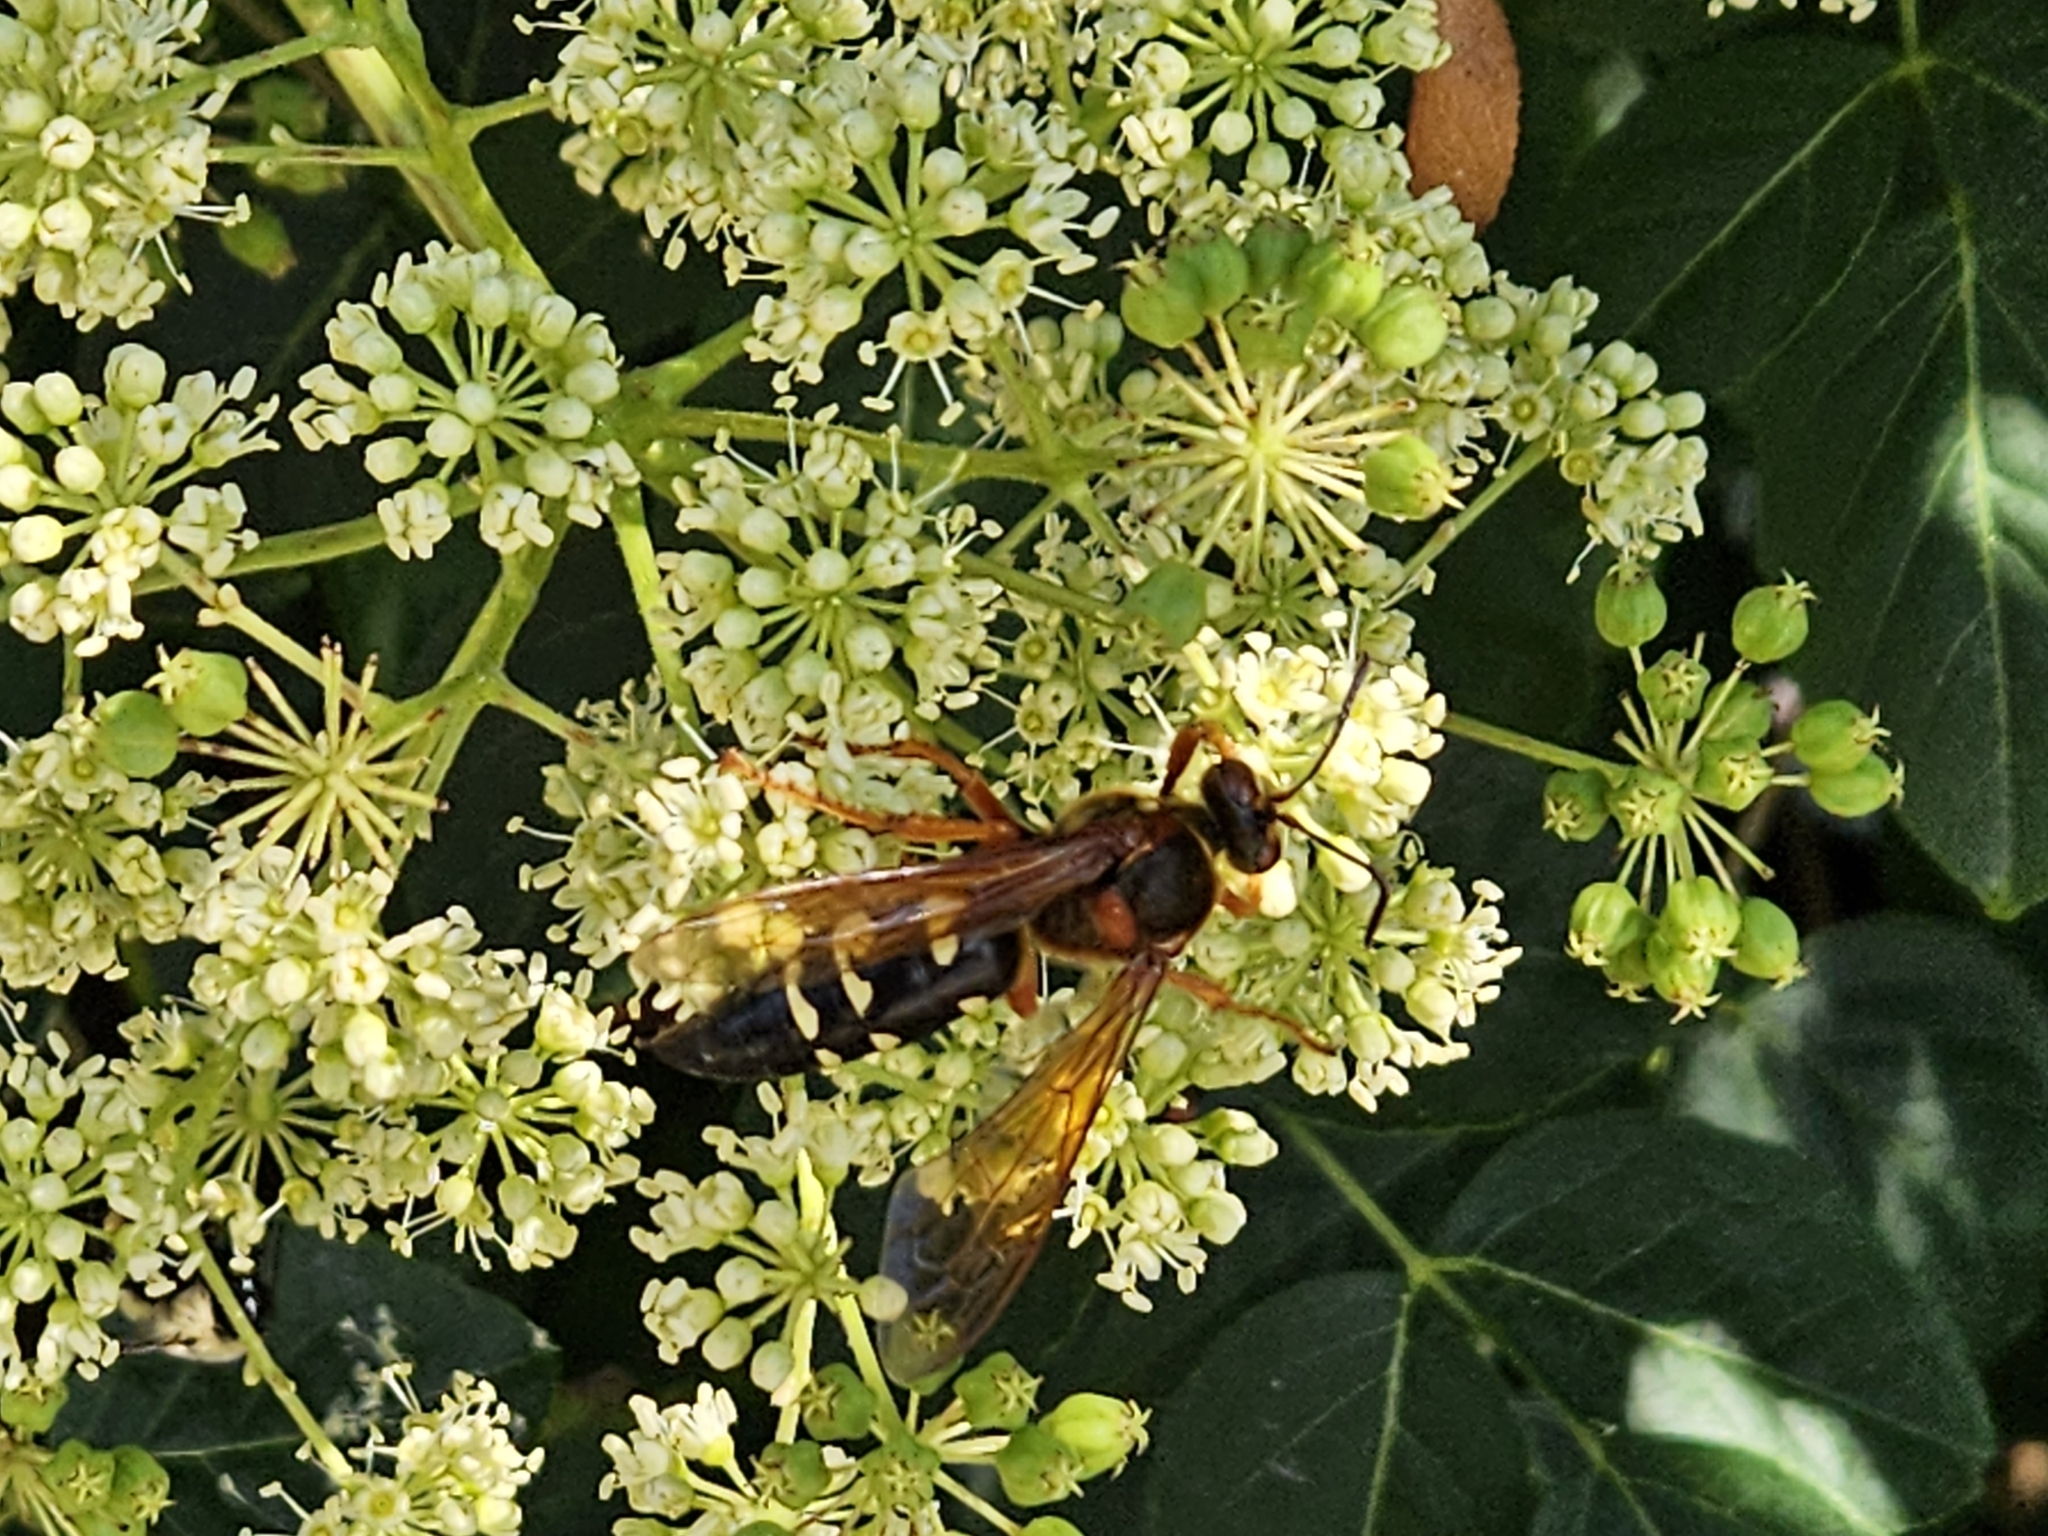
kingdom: Animalia
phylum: Arthropoda
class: Insecta
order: Hymenoptera
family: Crabronidae
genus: Sphecius
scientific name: Sphecius speciosus
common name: Cicada killer
